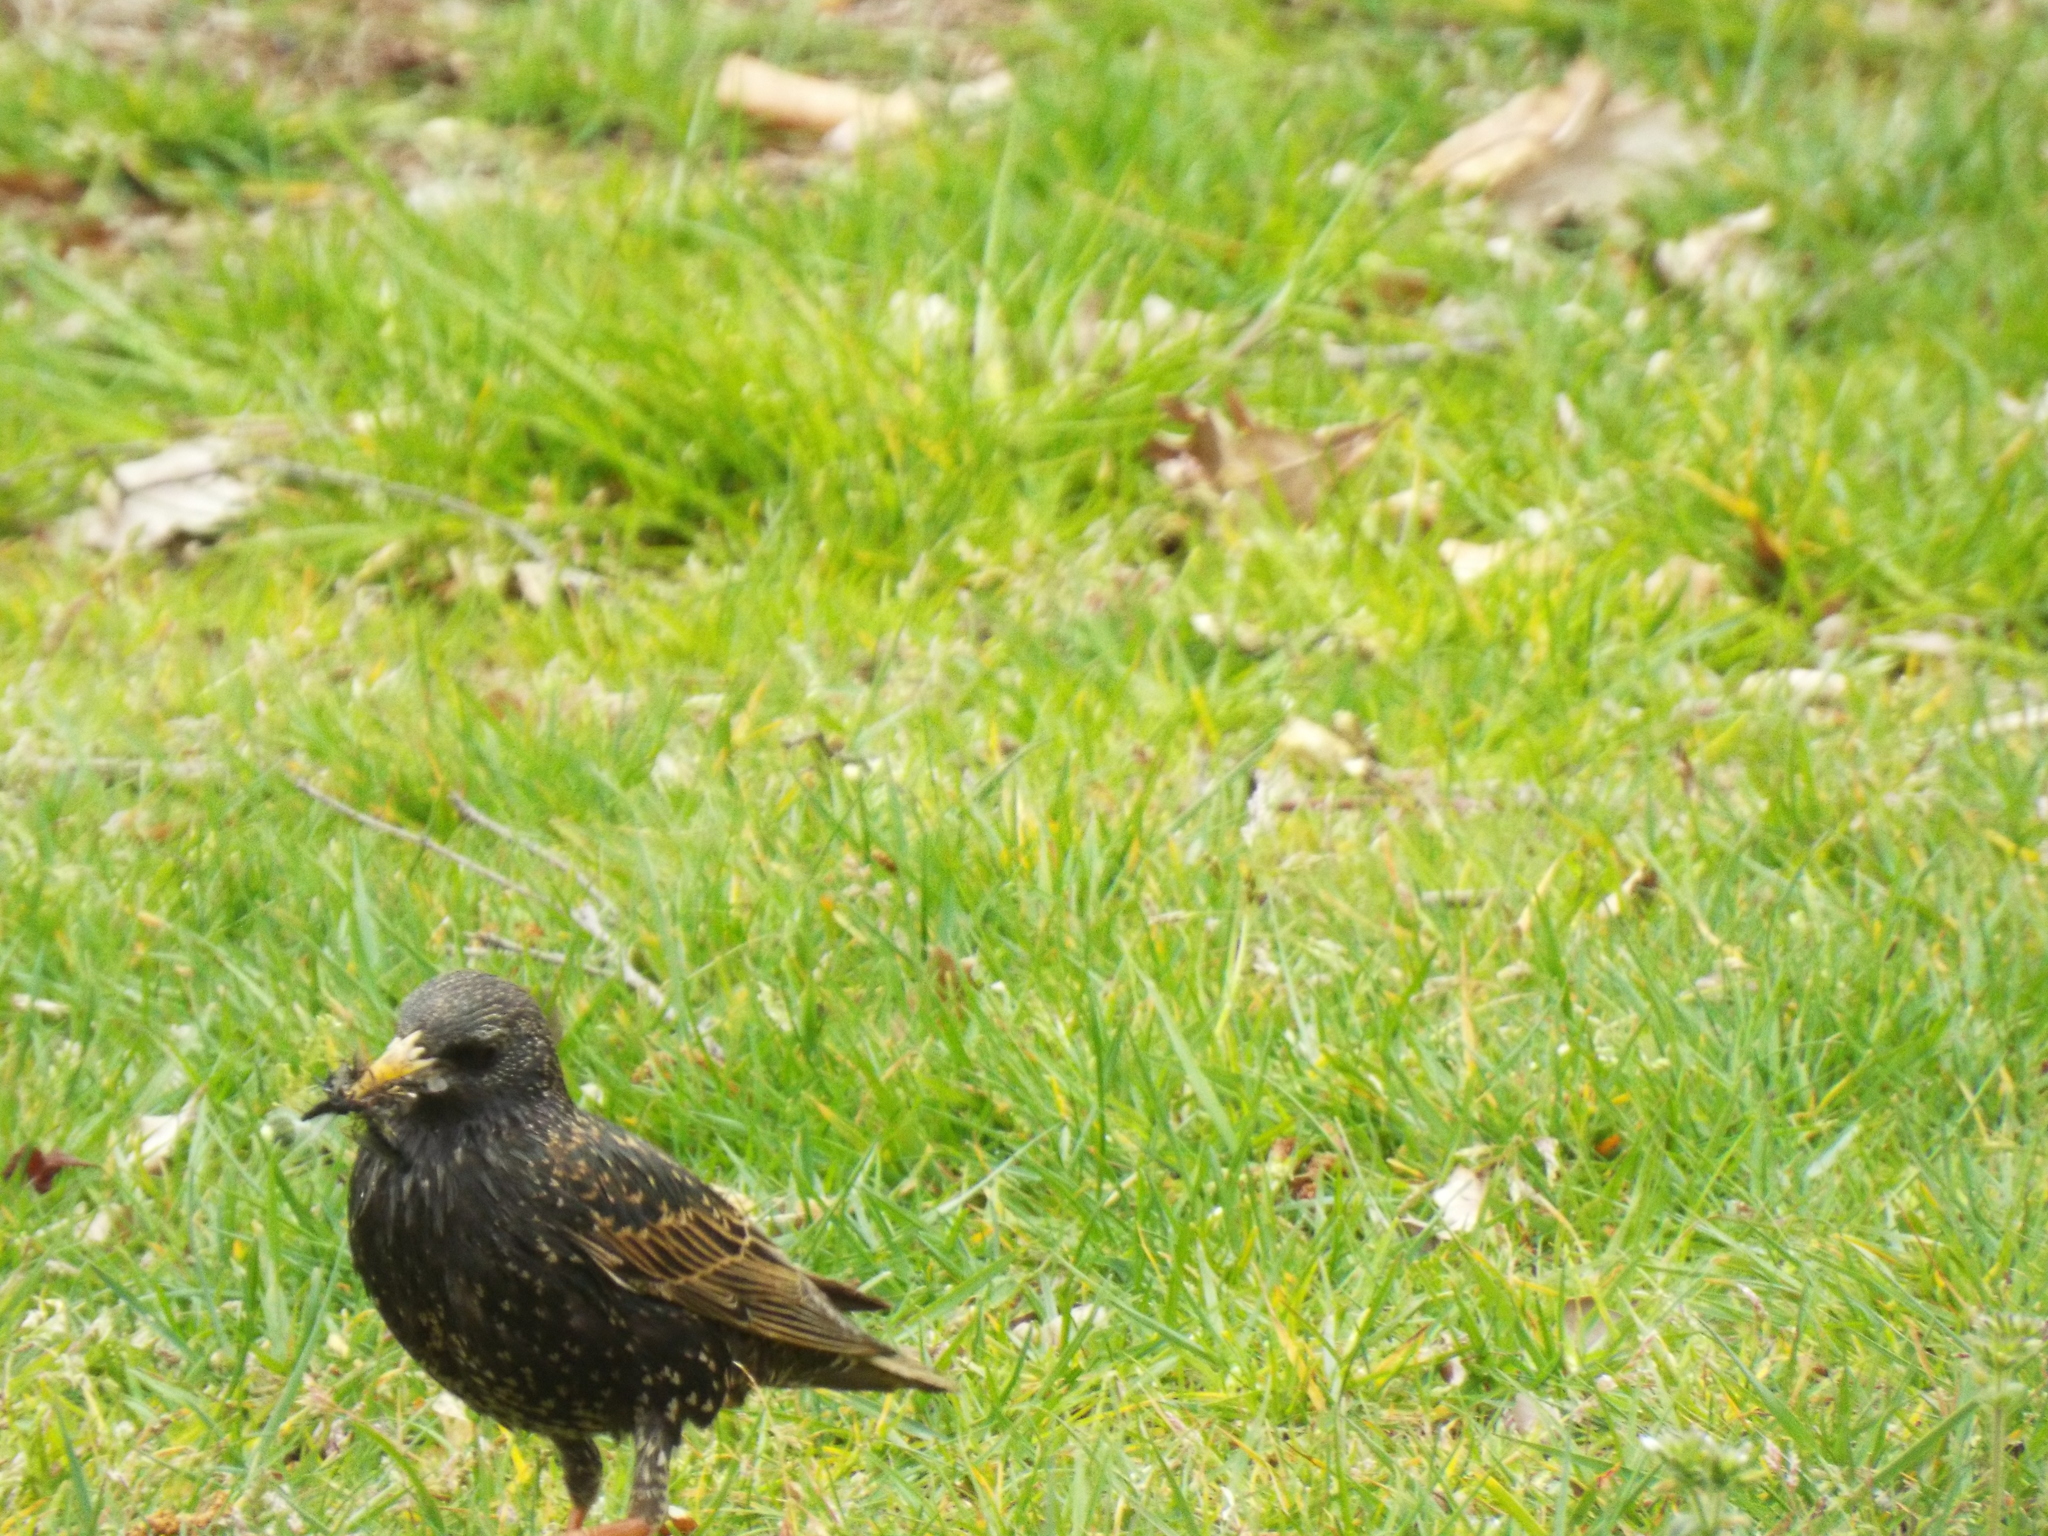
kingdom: Animalia
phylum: Chordata
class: Aves
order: Passeriformes
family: Sturnidae
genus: Sturnus
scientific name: Sturnus vulgaris
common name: Common starling
